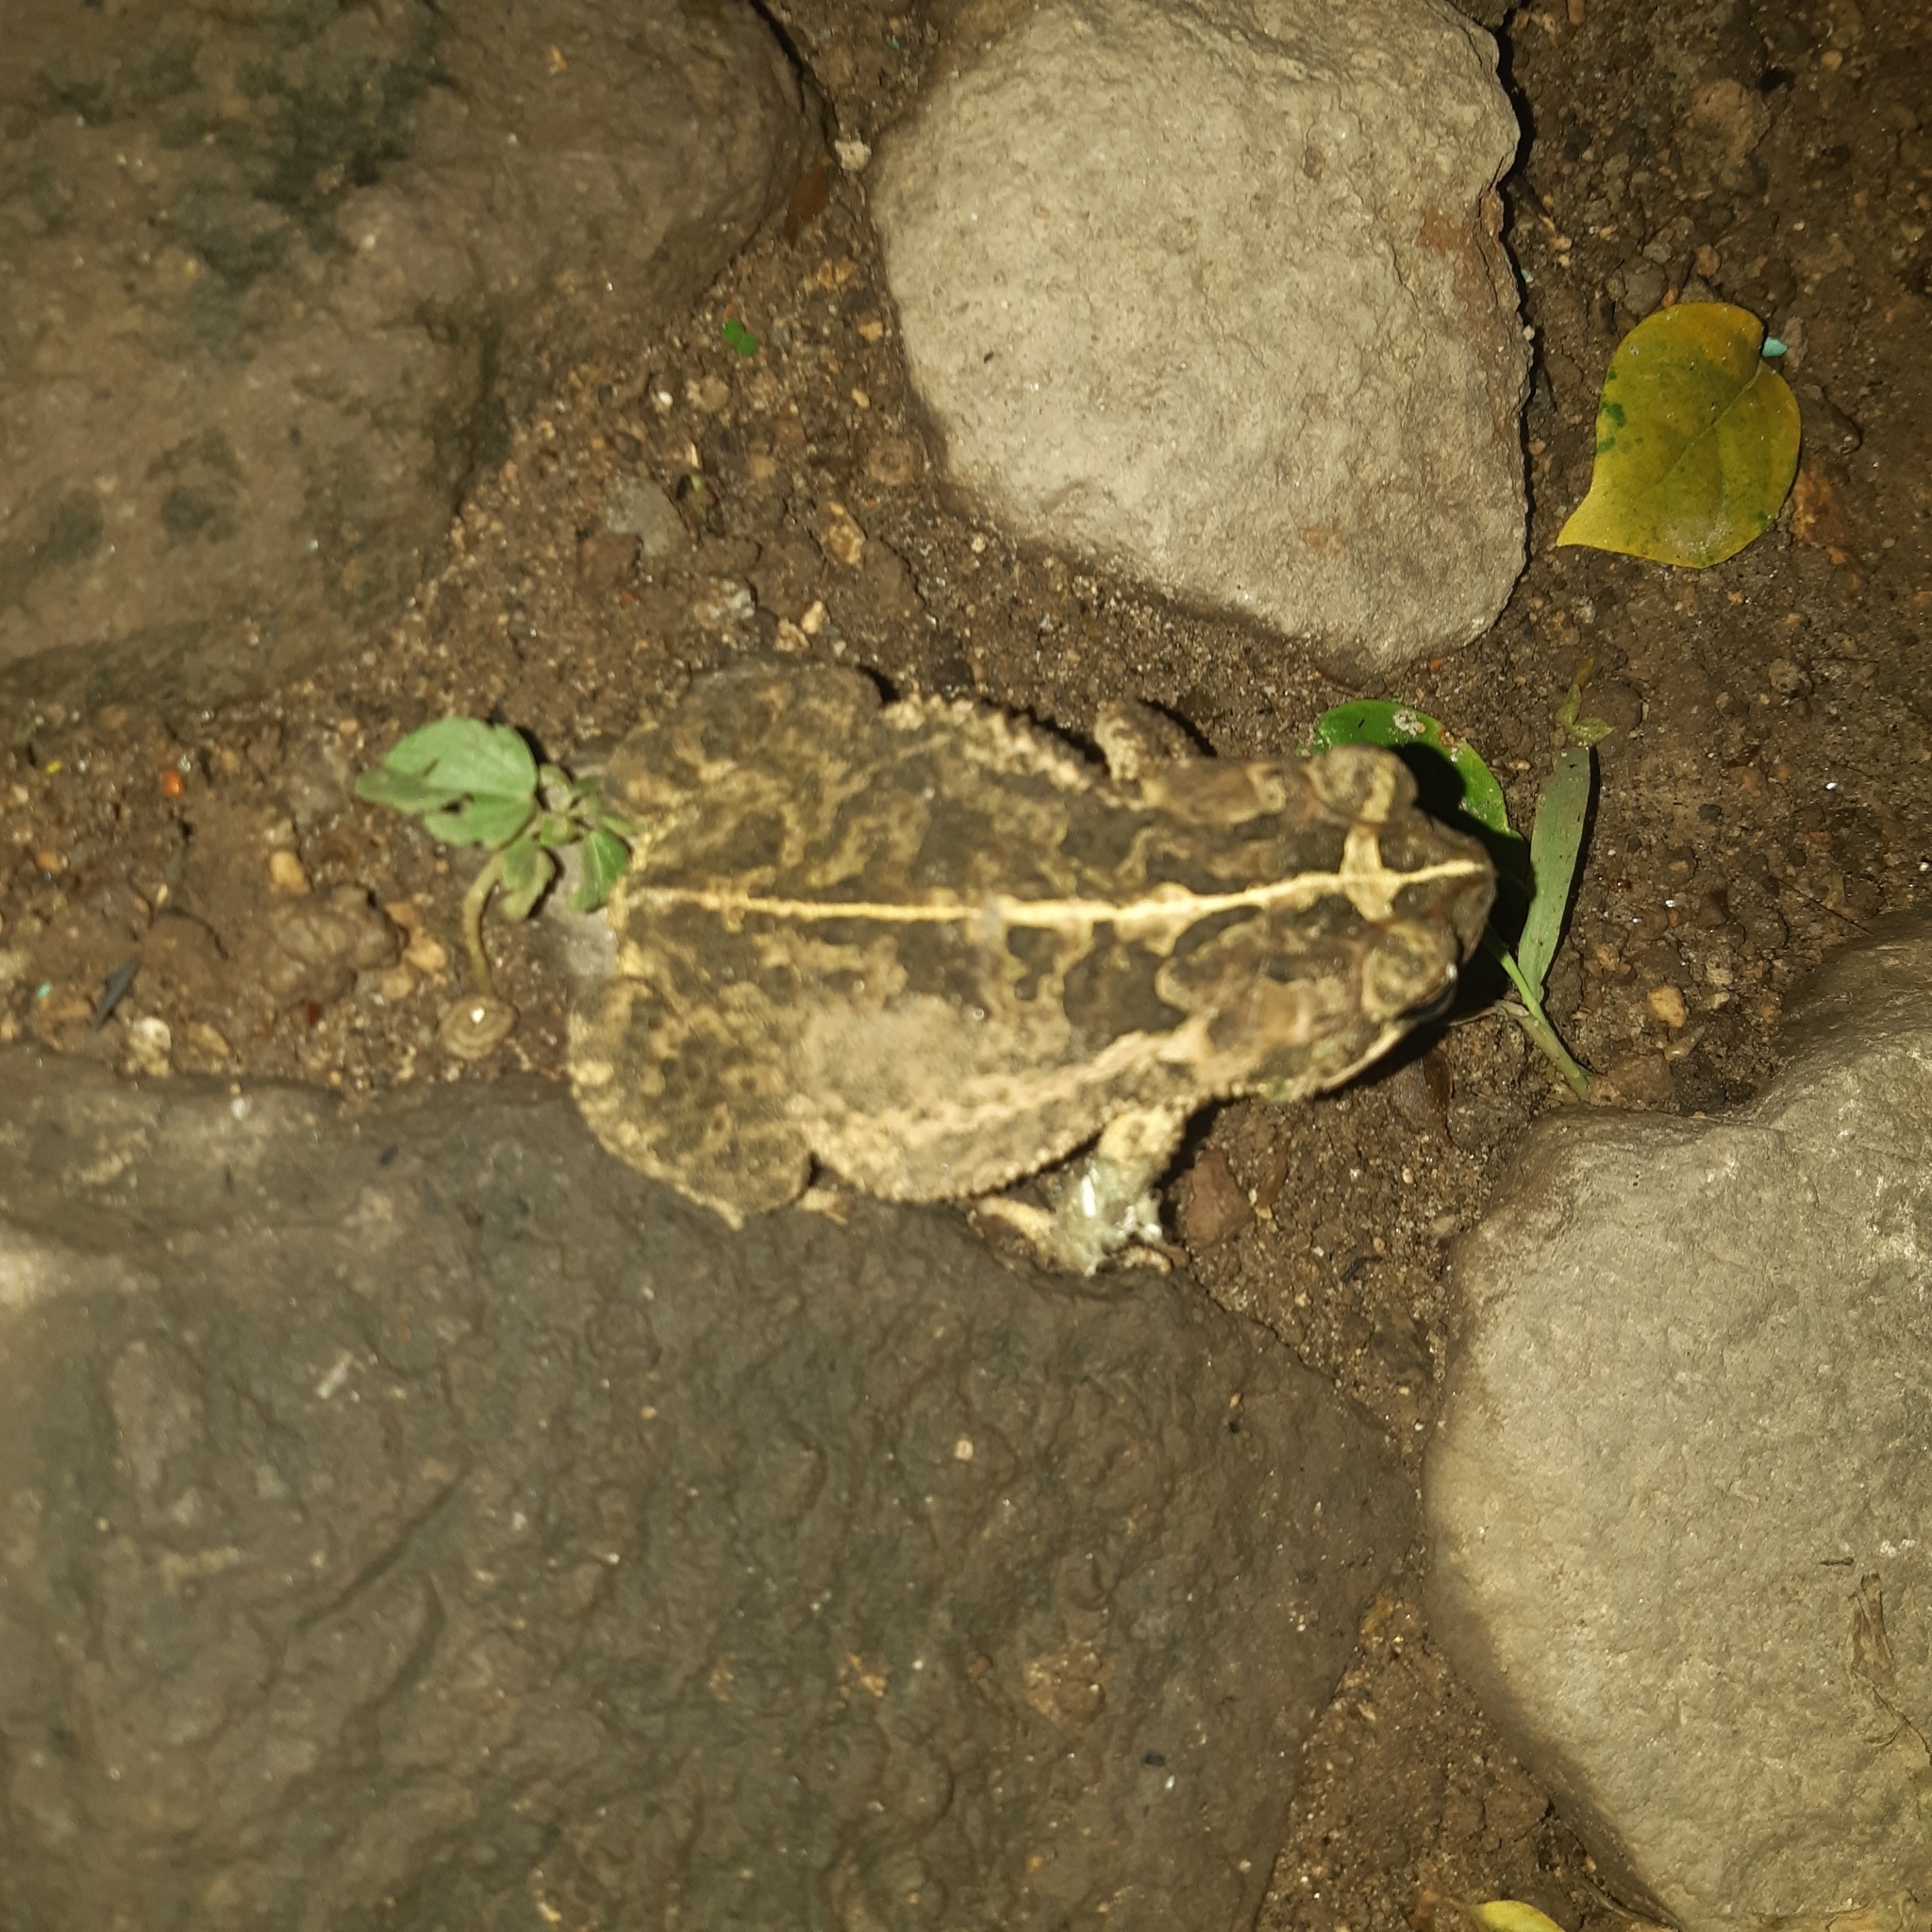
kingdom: Animalia
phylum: Chordata
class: Amphibia
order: Anura
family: Bufonidae
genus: Incilius
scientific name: Incilius coccifer
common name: Southern round-gland toad
